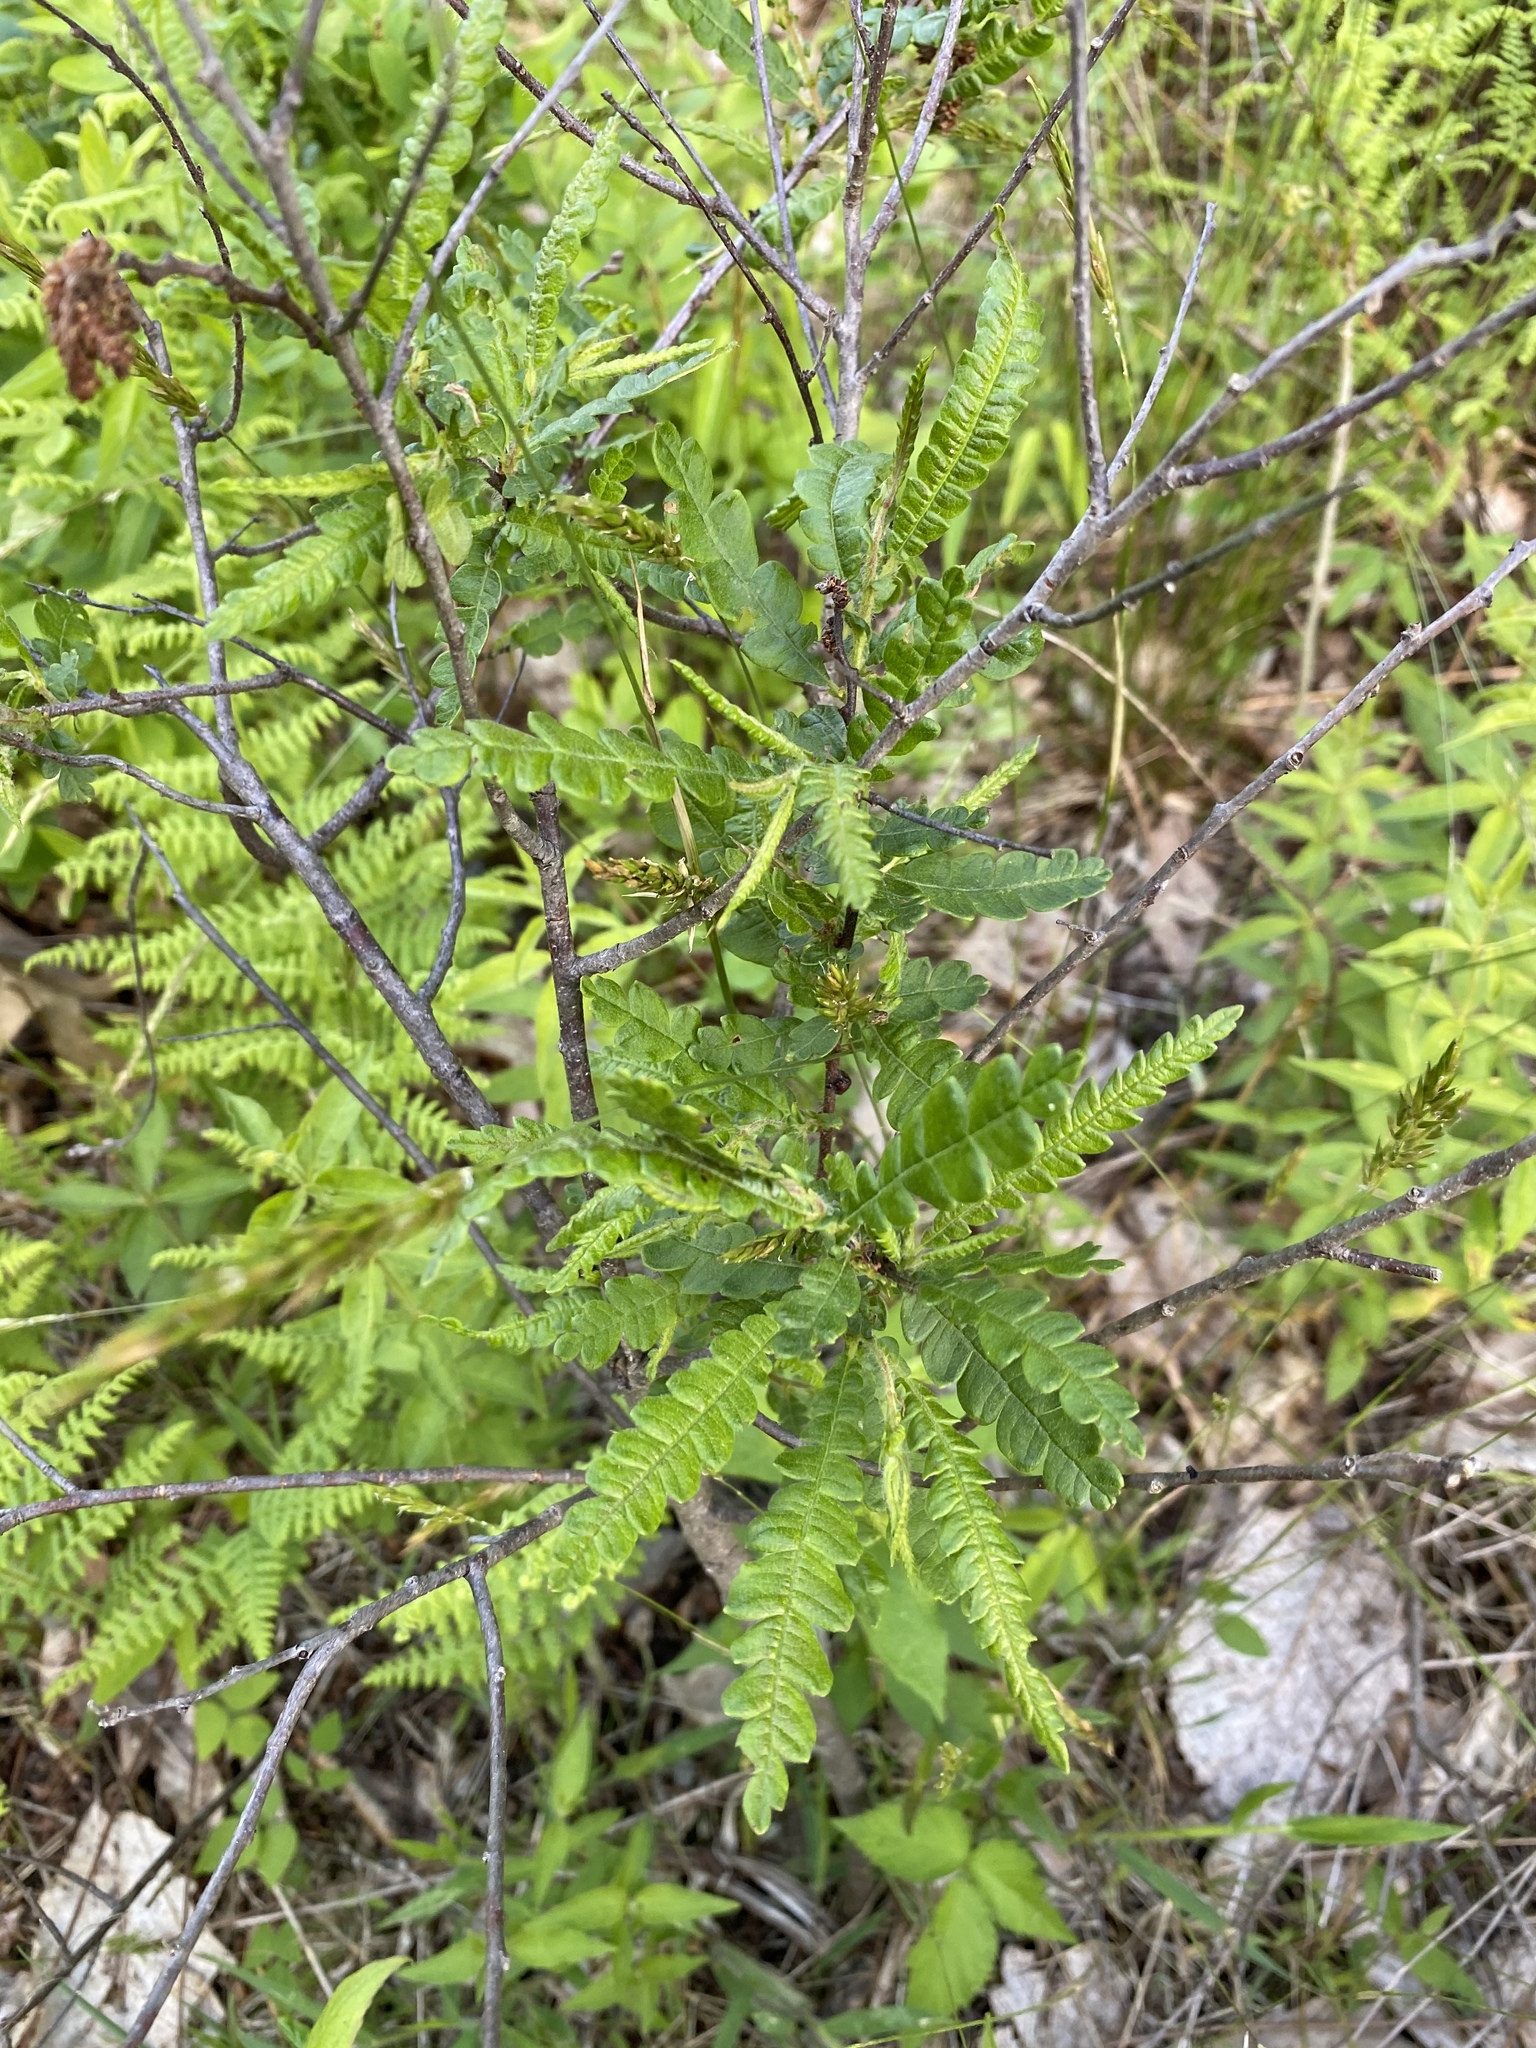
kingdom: Plantae
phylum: Tracheophyta
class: Magnoliopsida
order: Fagales
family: Myricaceae
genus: Comptonia
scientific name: Comptonia peregrina
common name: Sweet-fern
